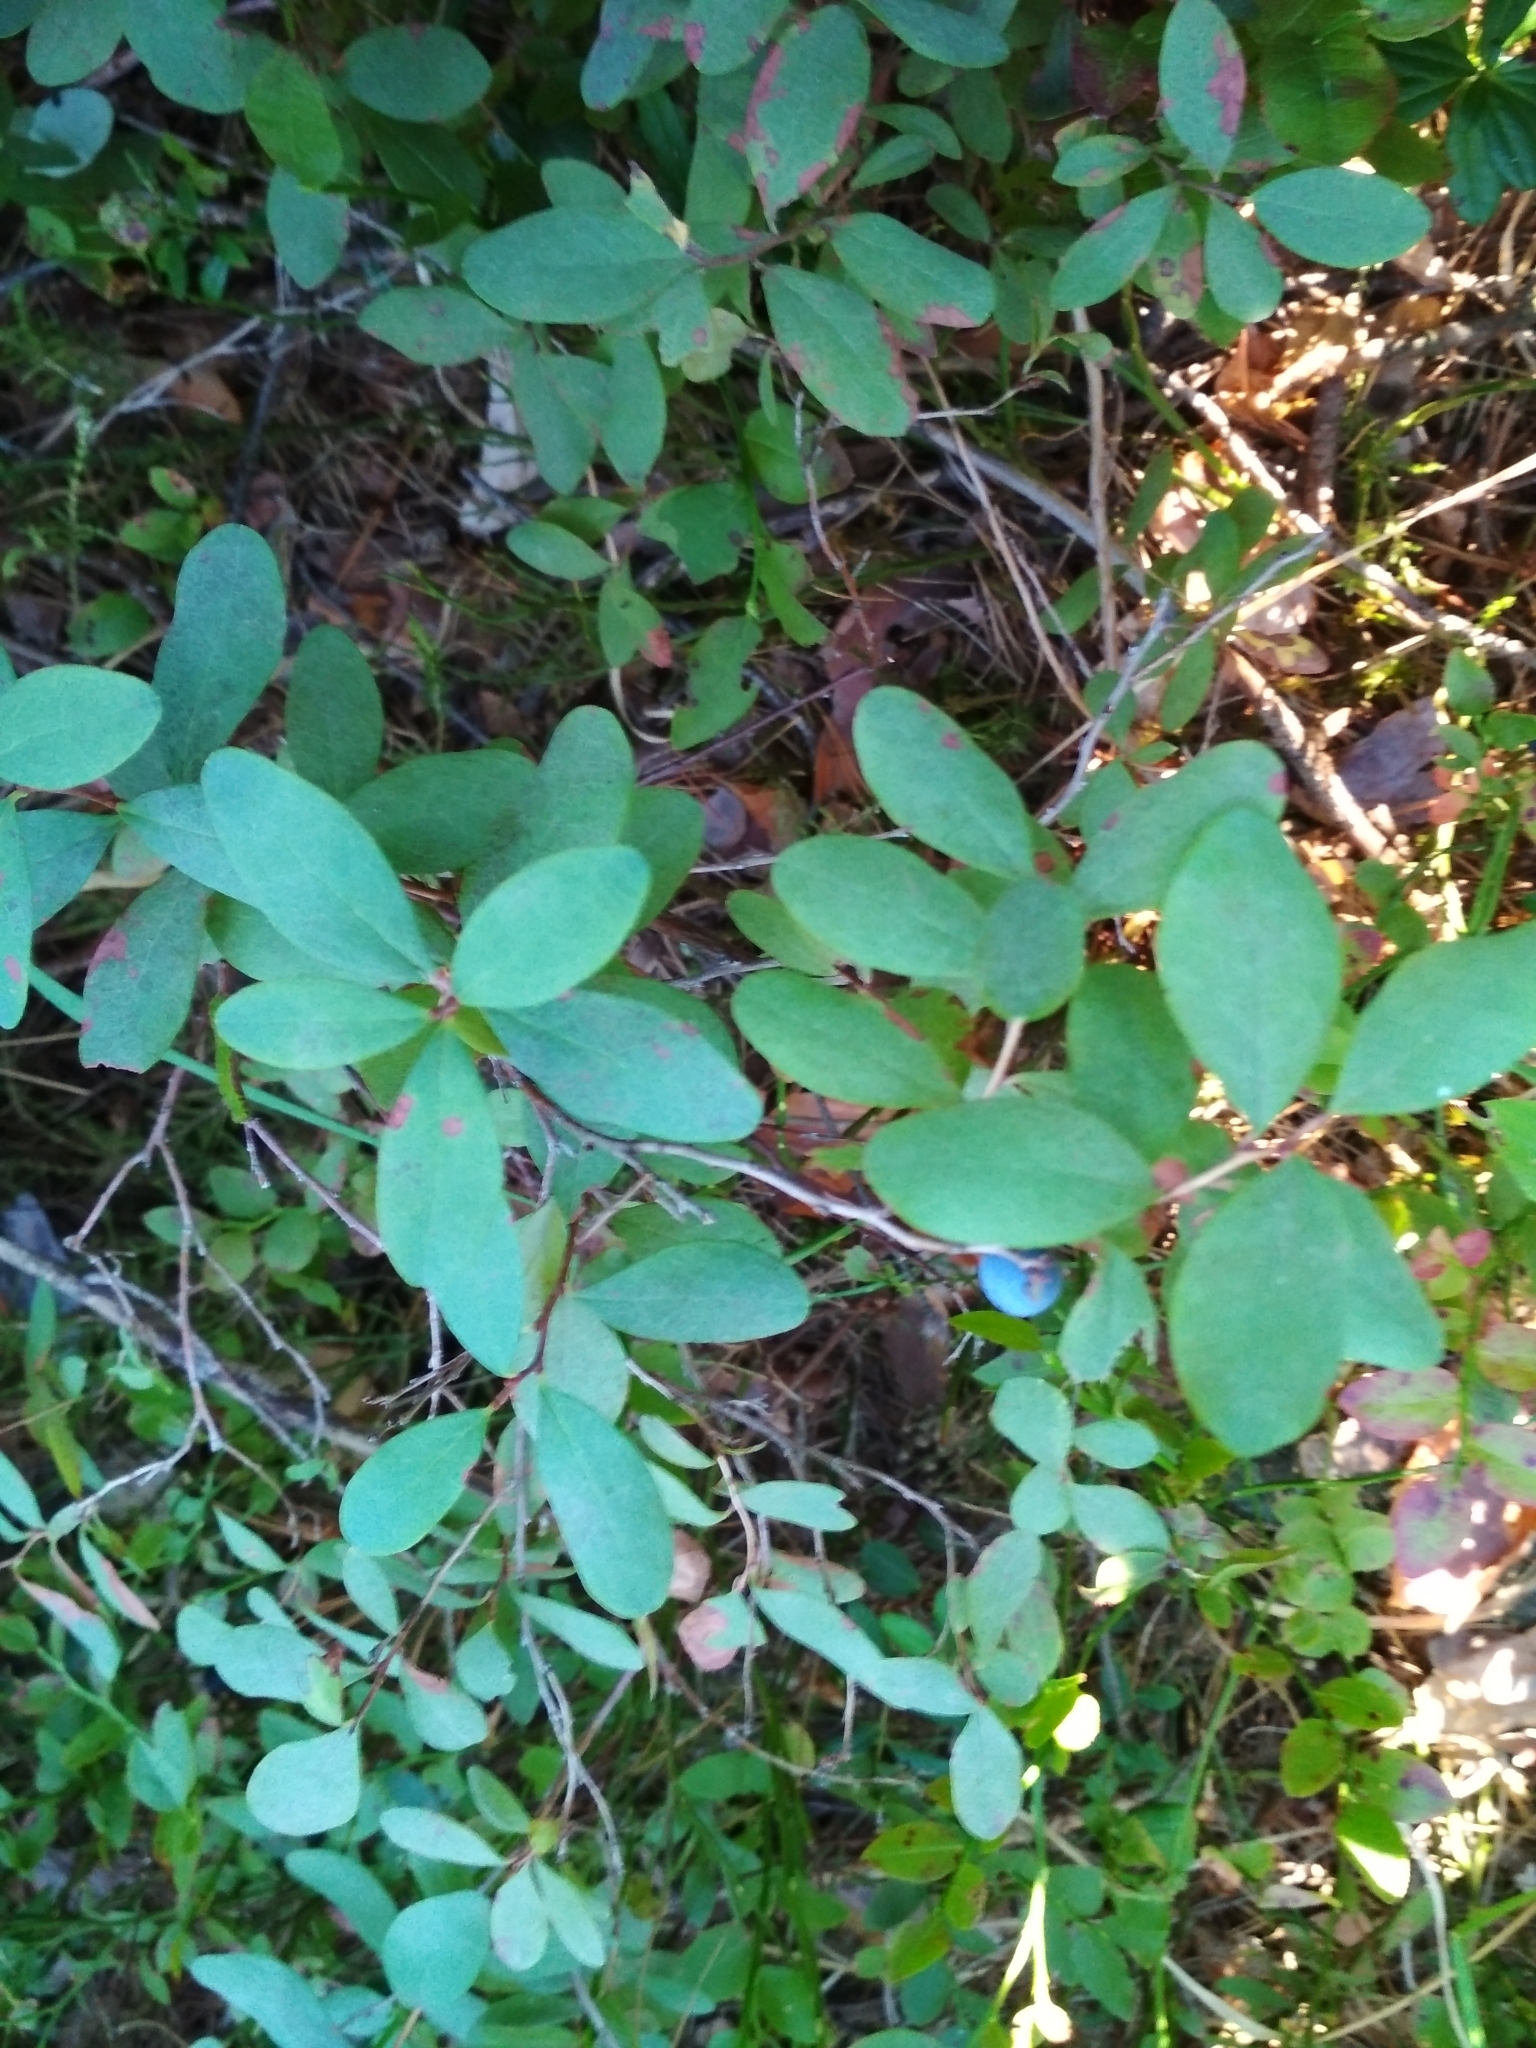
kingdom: Plantae
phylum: Tracheophyta
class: Magnoliopsida
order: Ericales
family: Ericaceae
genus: Vaccinium
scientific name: Vaccinium uliginosum
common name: Bog bilberry
